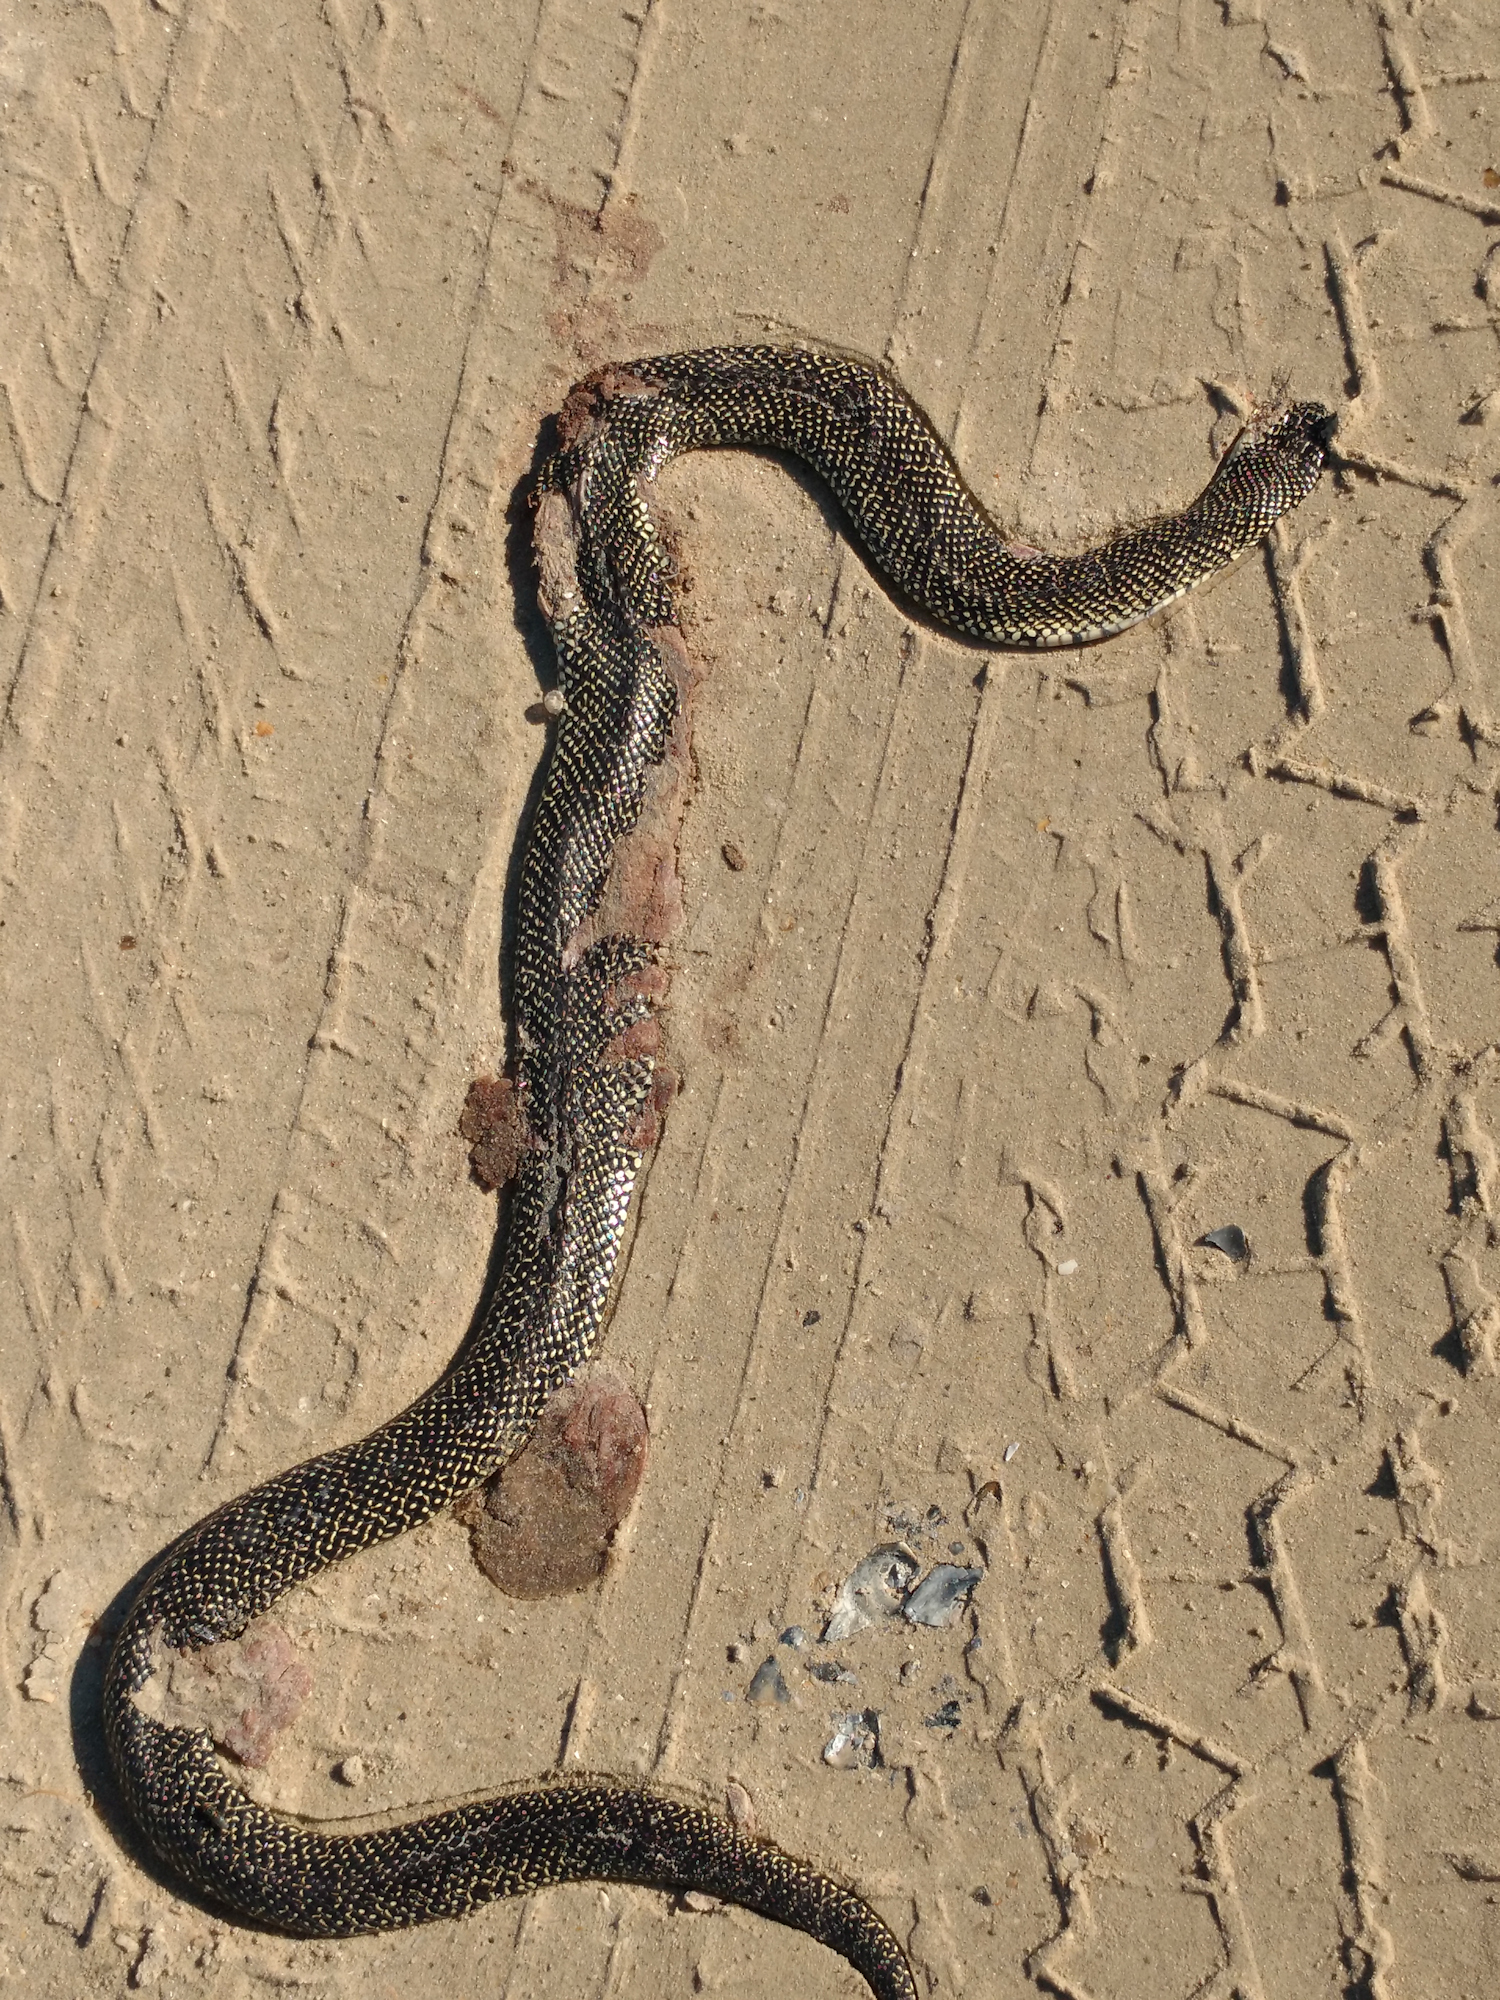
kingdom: Animalia
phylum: Chordata
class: Squamata
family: Colubridae
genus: Lampropeltis
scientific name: Lampropeltis holbrooki
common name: Speckled kingsnake
